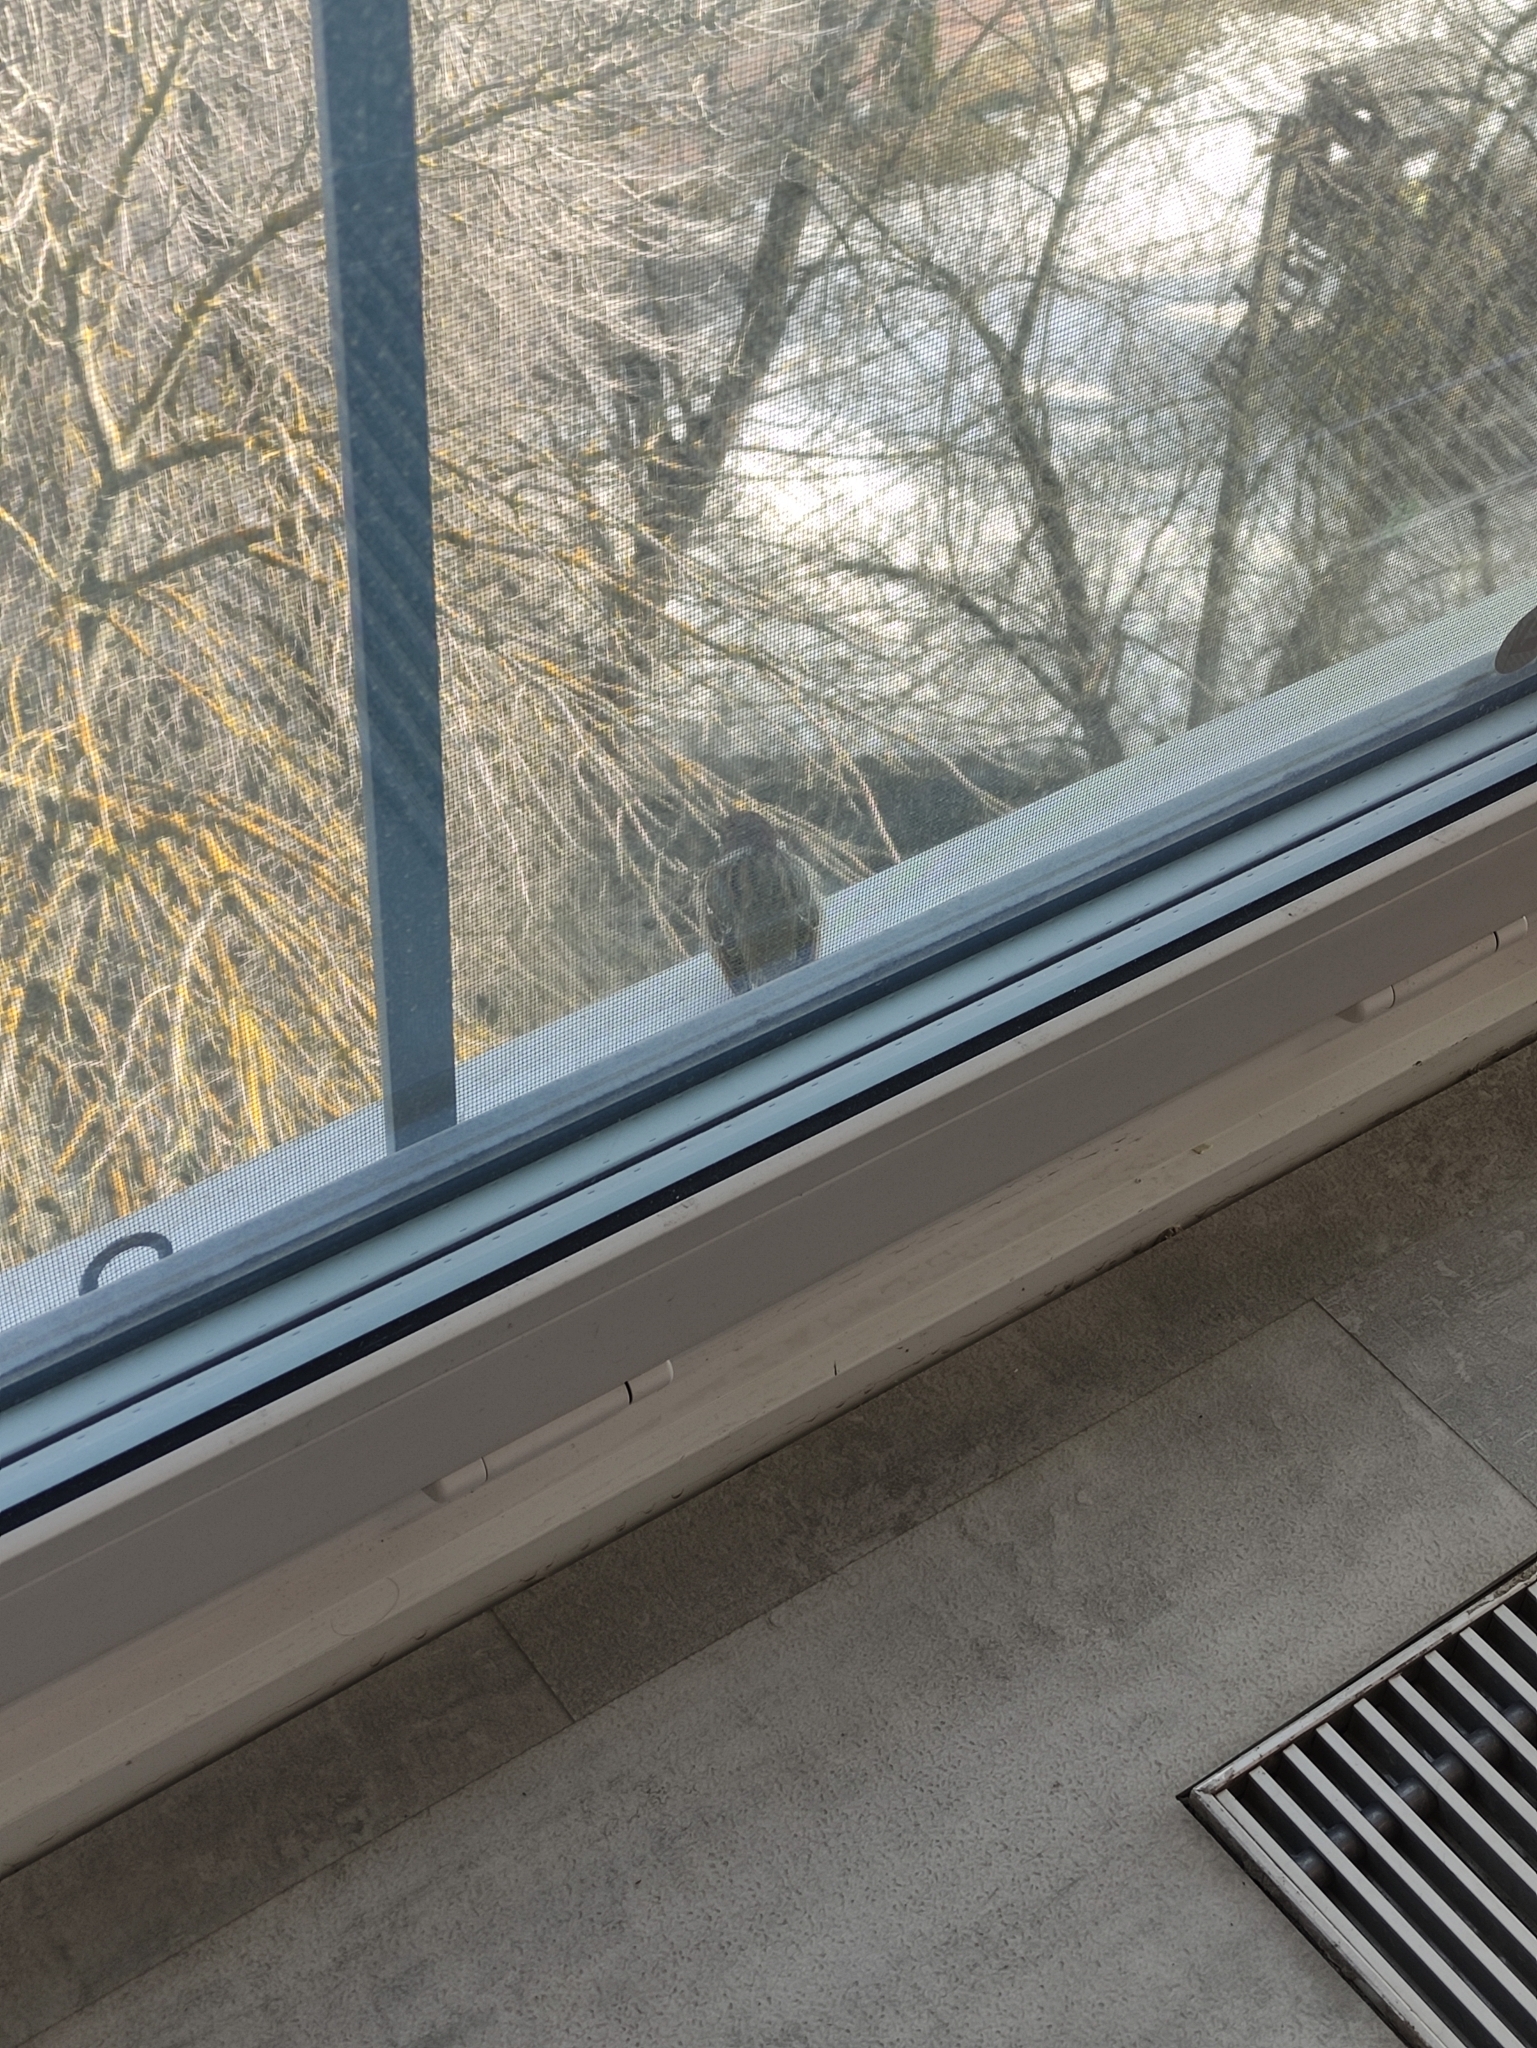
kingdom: Animalia
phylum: Chordata
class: Aves
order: Passeriformes
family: Passeridae
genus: Passer
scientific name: Passer montanus
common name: Eurasian tree sparrow
